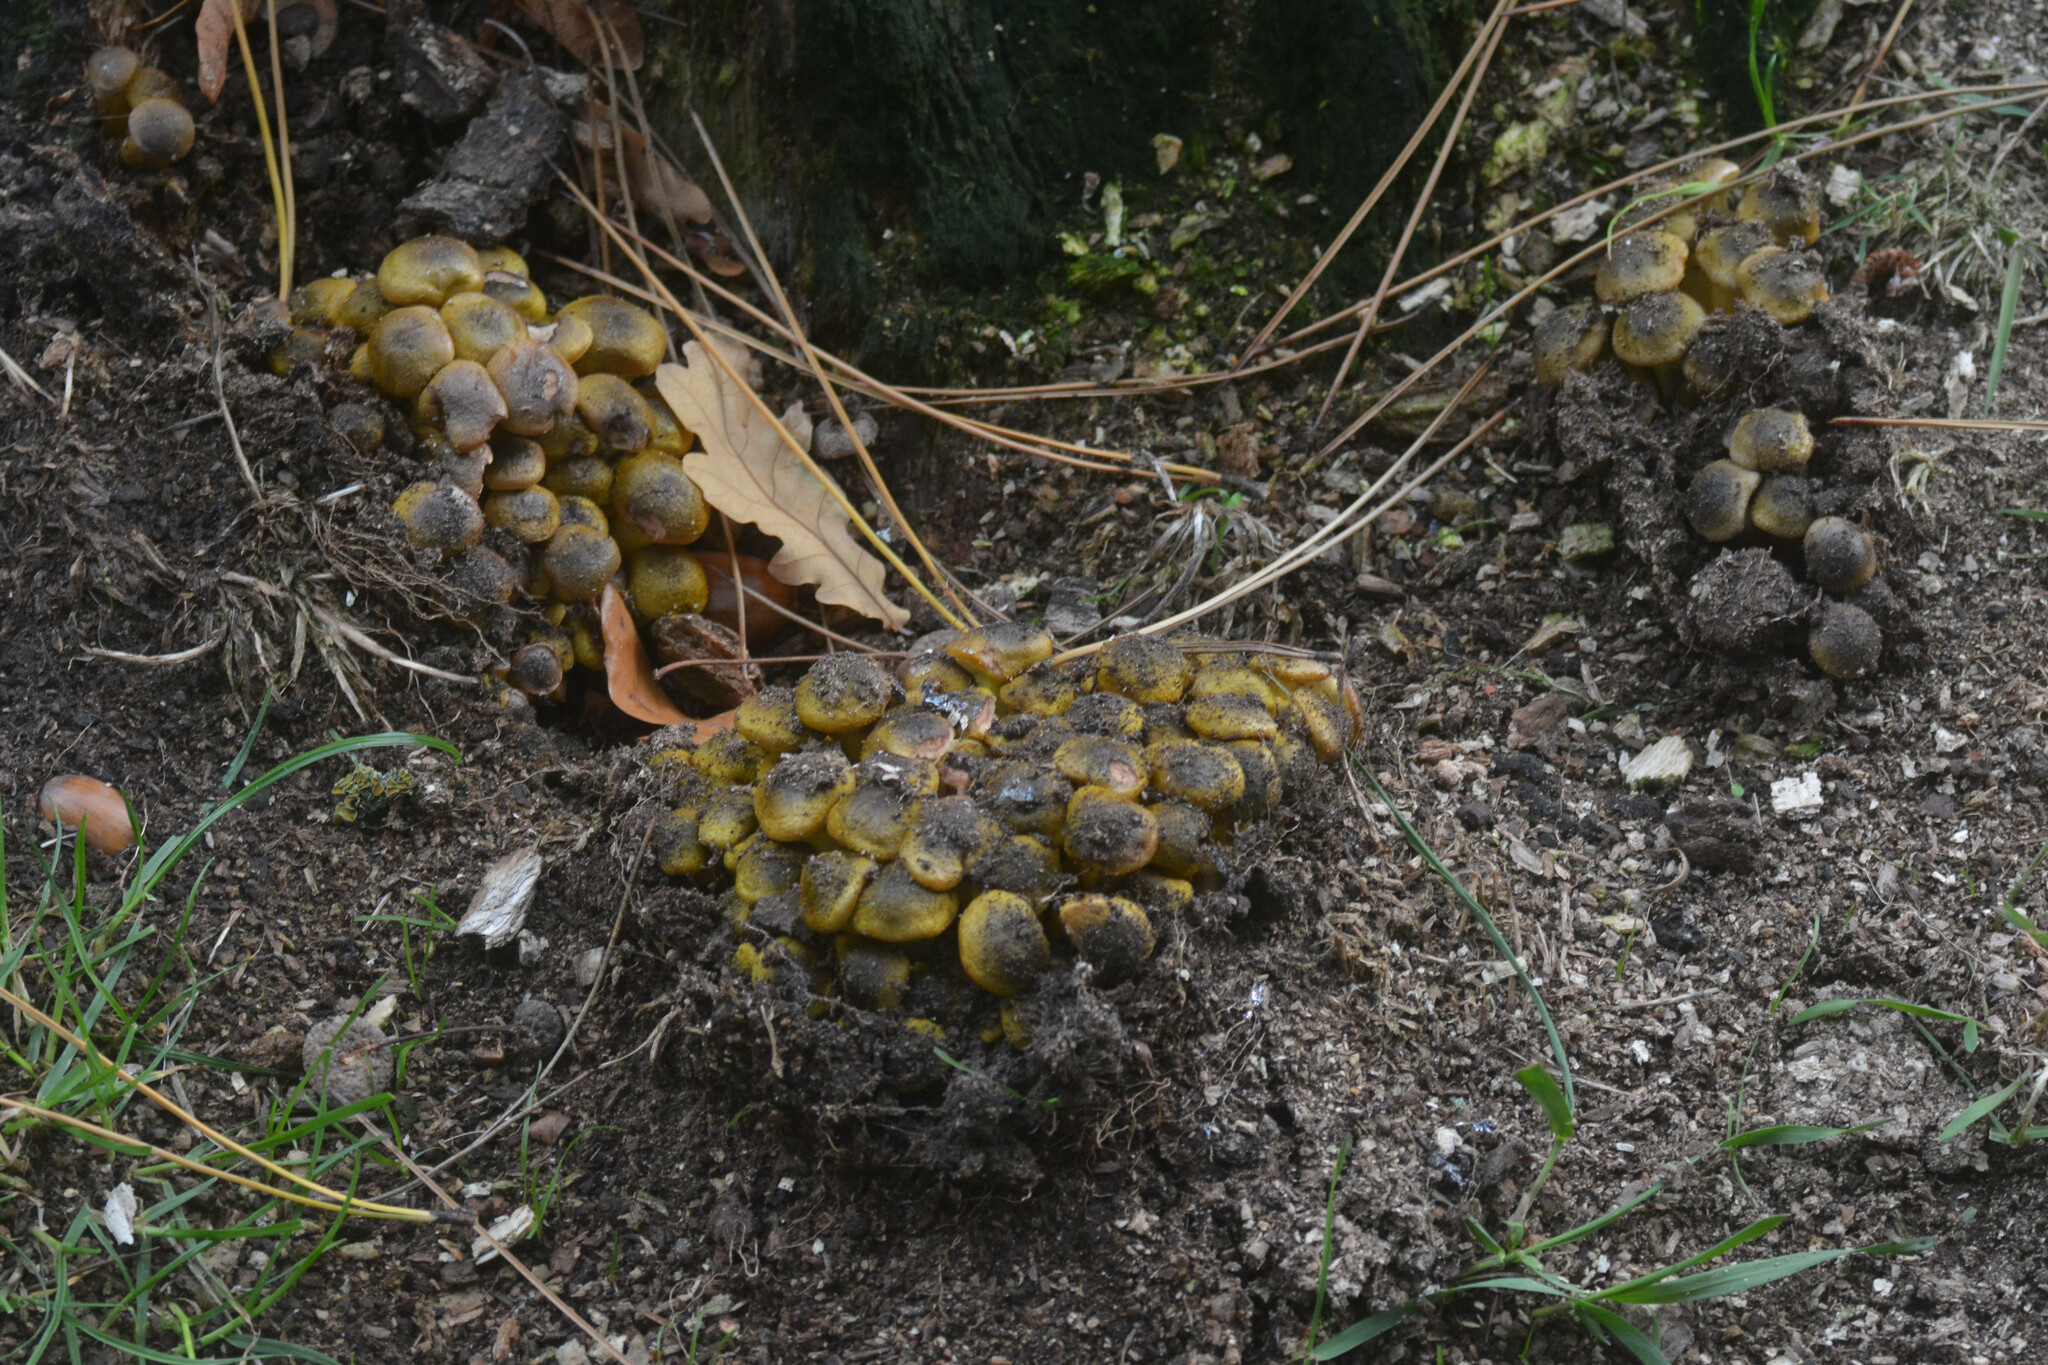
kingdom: Fungi
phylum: Basidiomycota
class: Agaricomycetes
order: Agaricales
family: Physalacriaceae
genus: Armillaria
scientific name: Armillaria mellea
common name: Honey fungus
